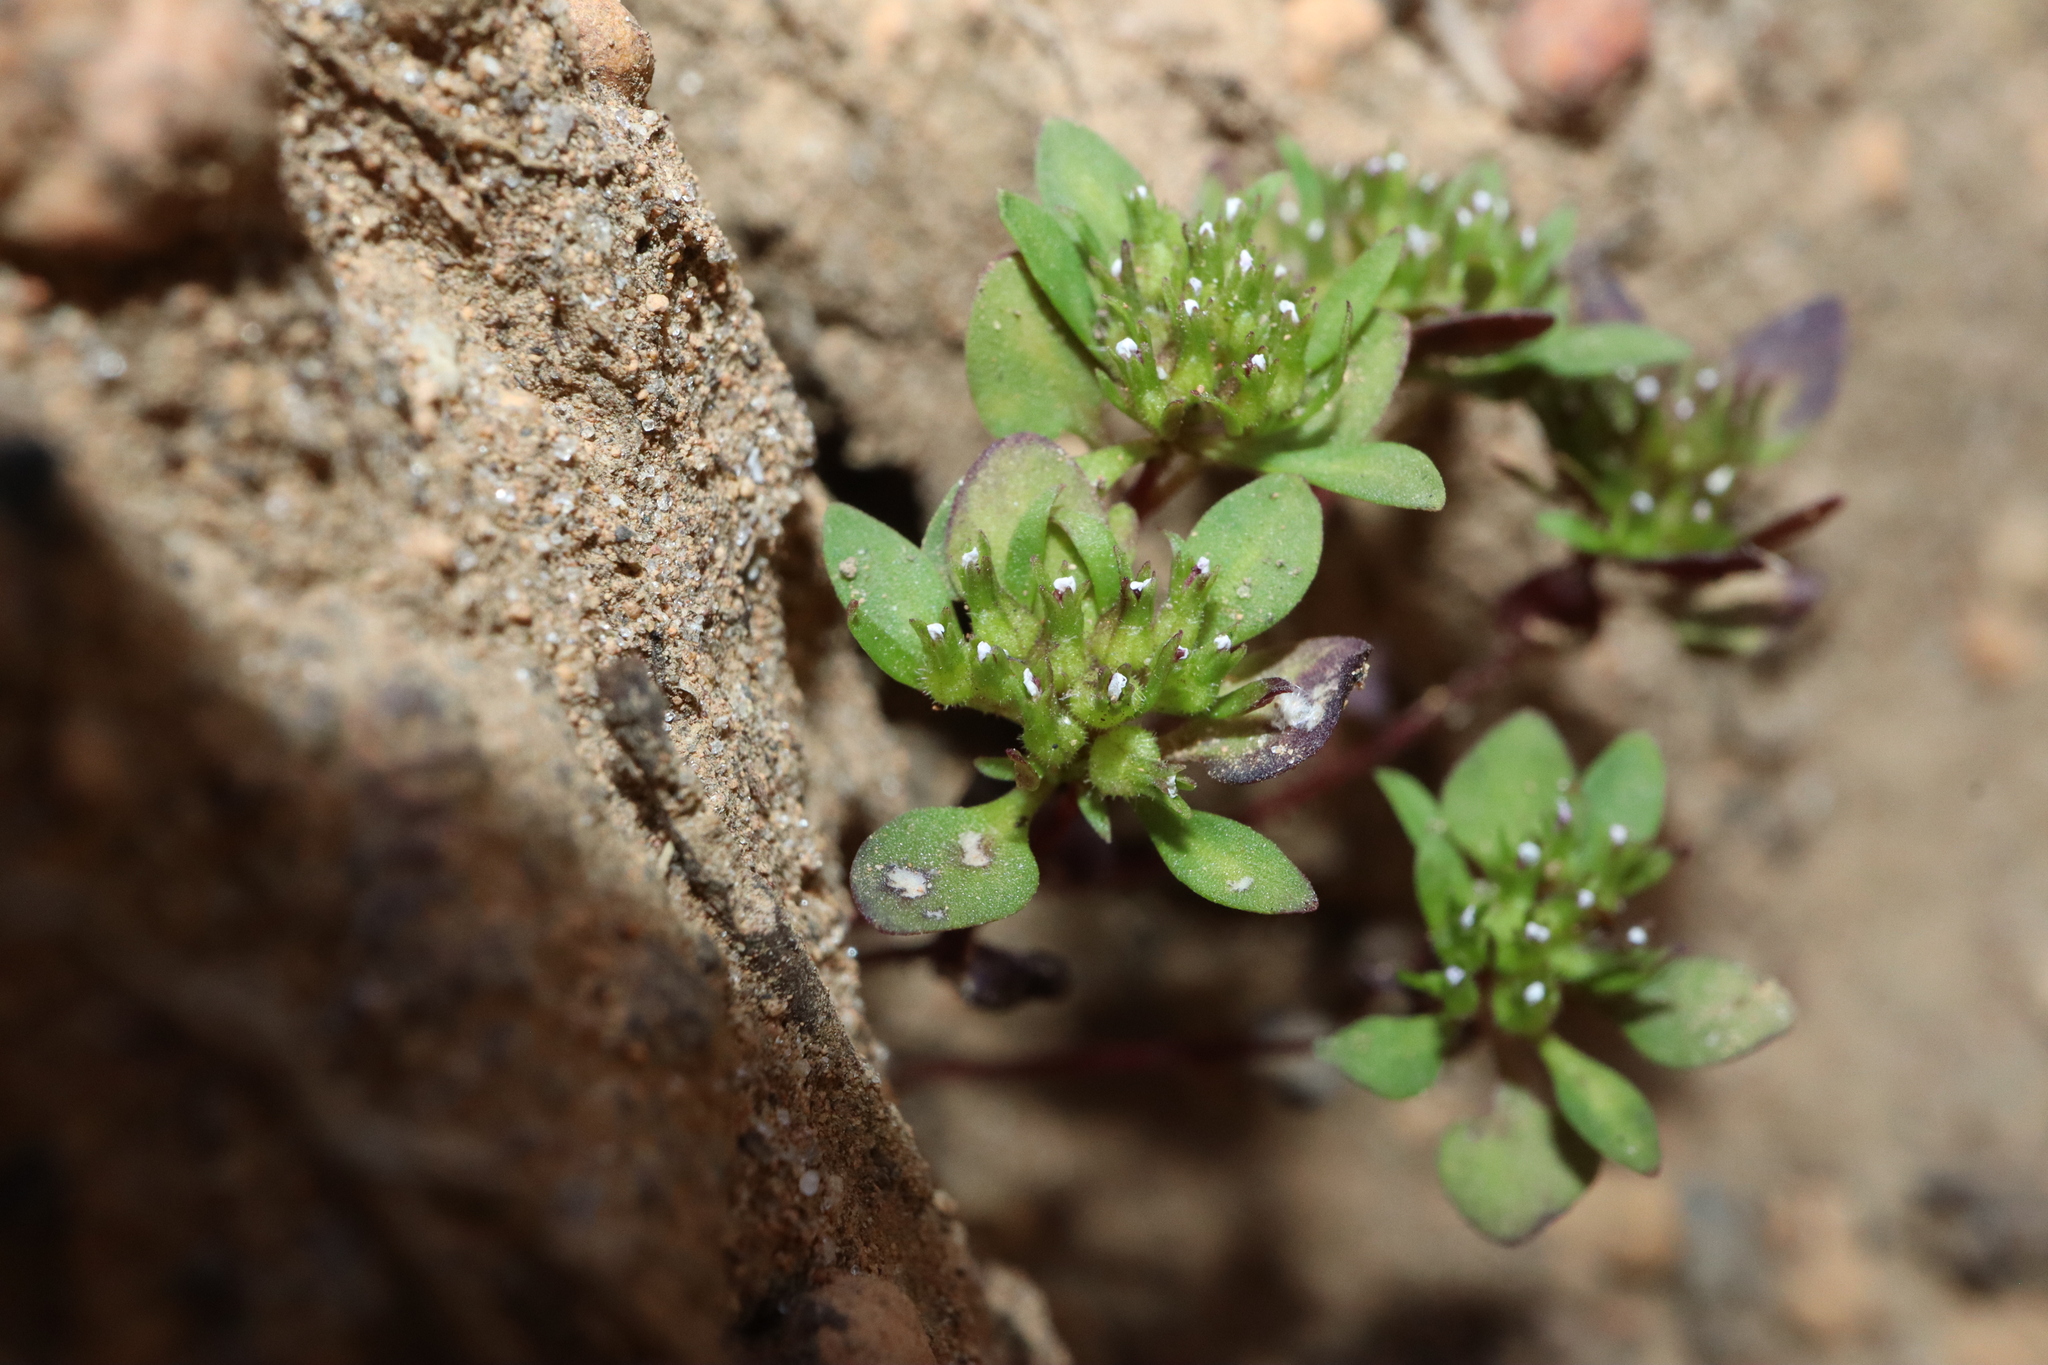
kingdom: Plantae
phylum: Tracheophyta
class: Magnoliopsida
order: Asterales
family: Stylidiaceae
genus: Levenhookia
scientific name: Levenhookia pusilla
